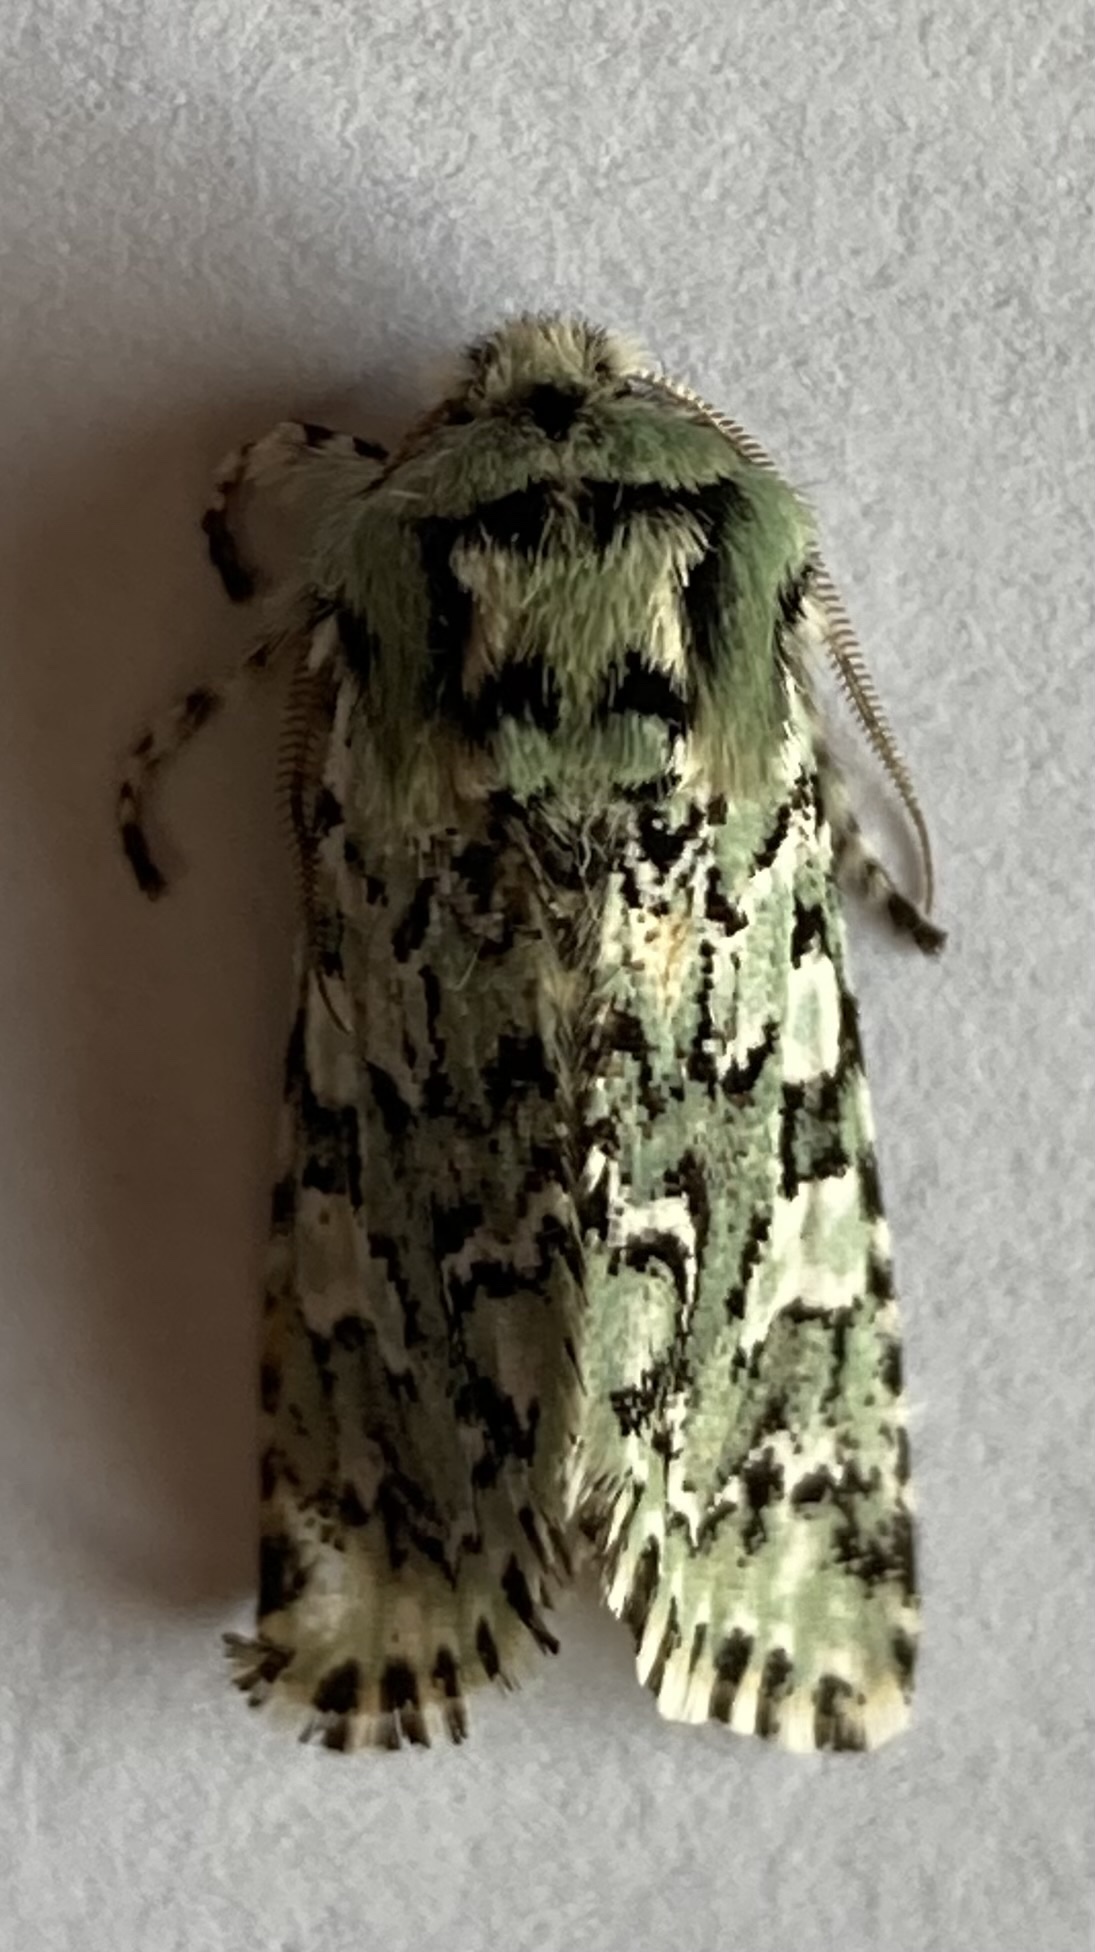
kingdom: Animalia
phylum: Arthropoda
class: Insecta
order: Lepidoptera
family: Noctuidae
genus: Feralia
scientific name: Feralia jocosa
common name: Joker
